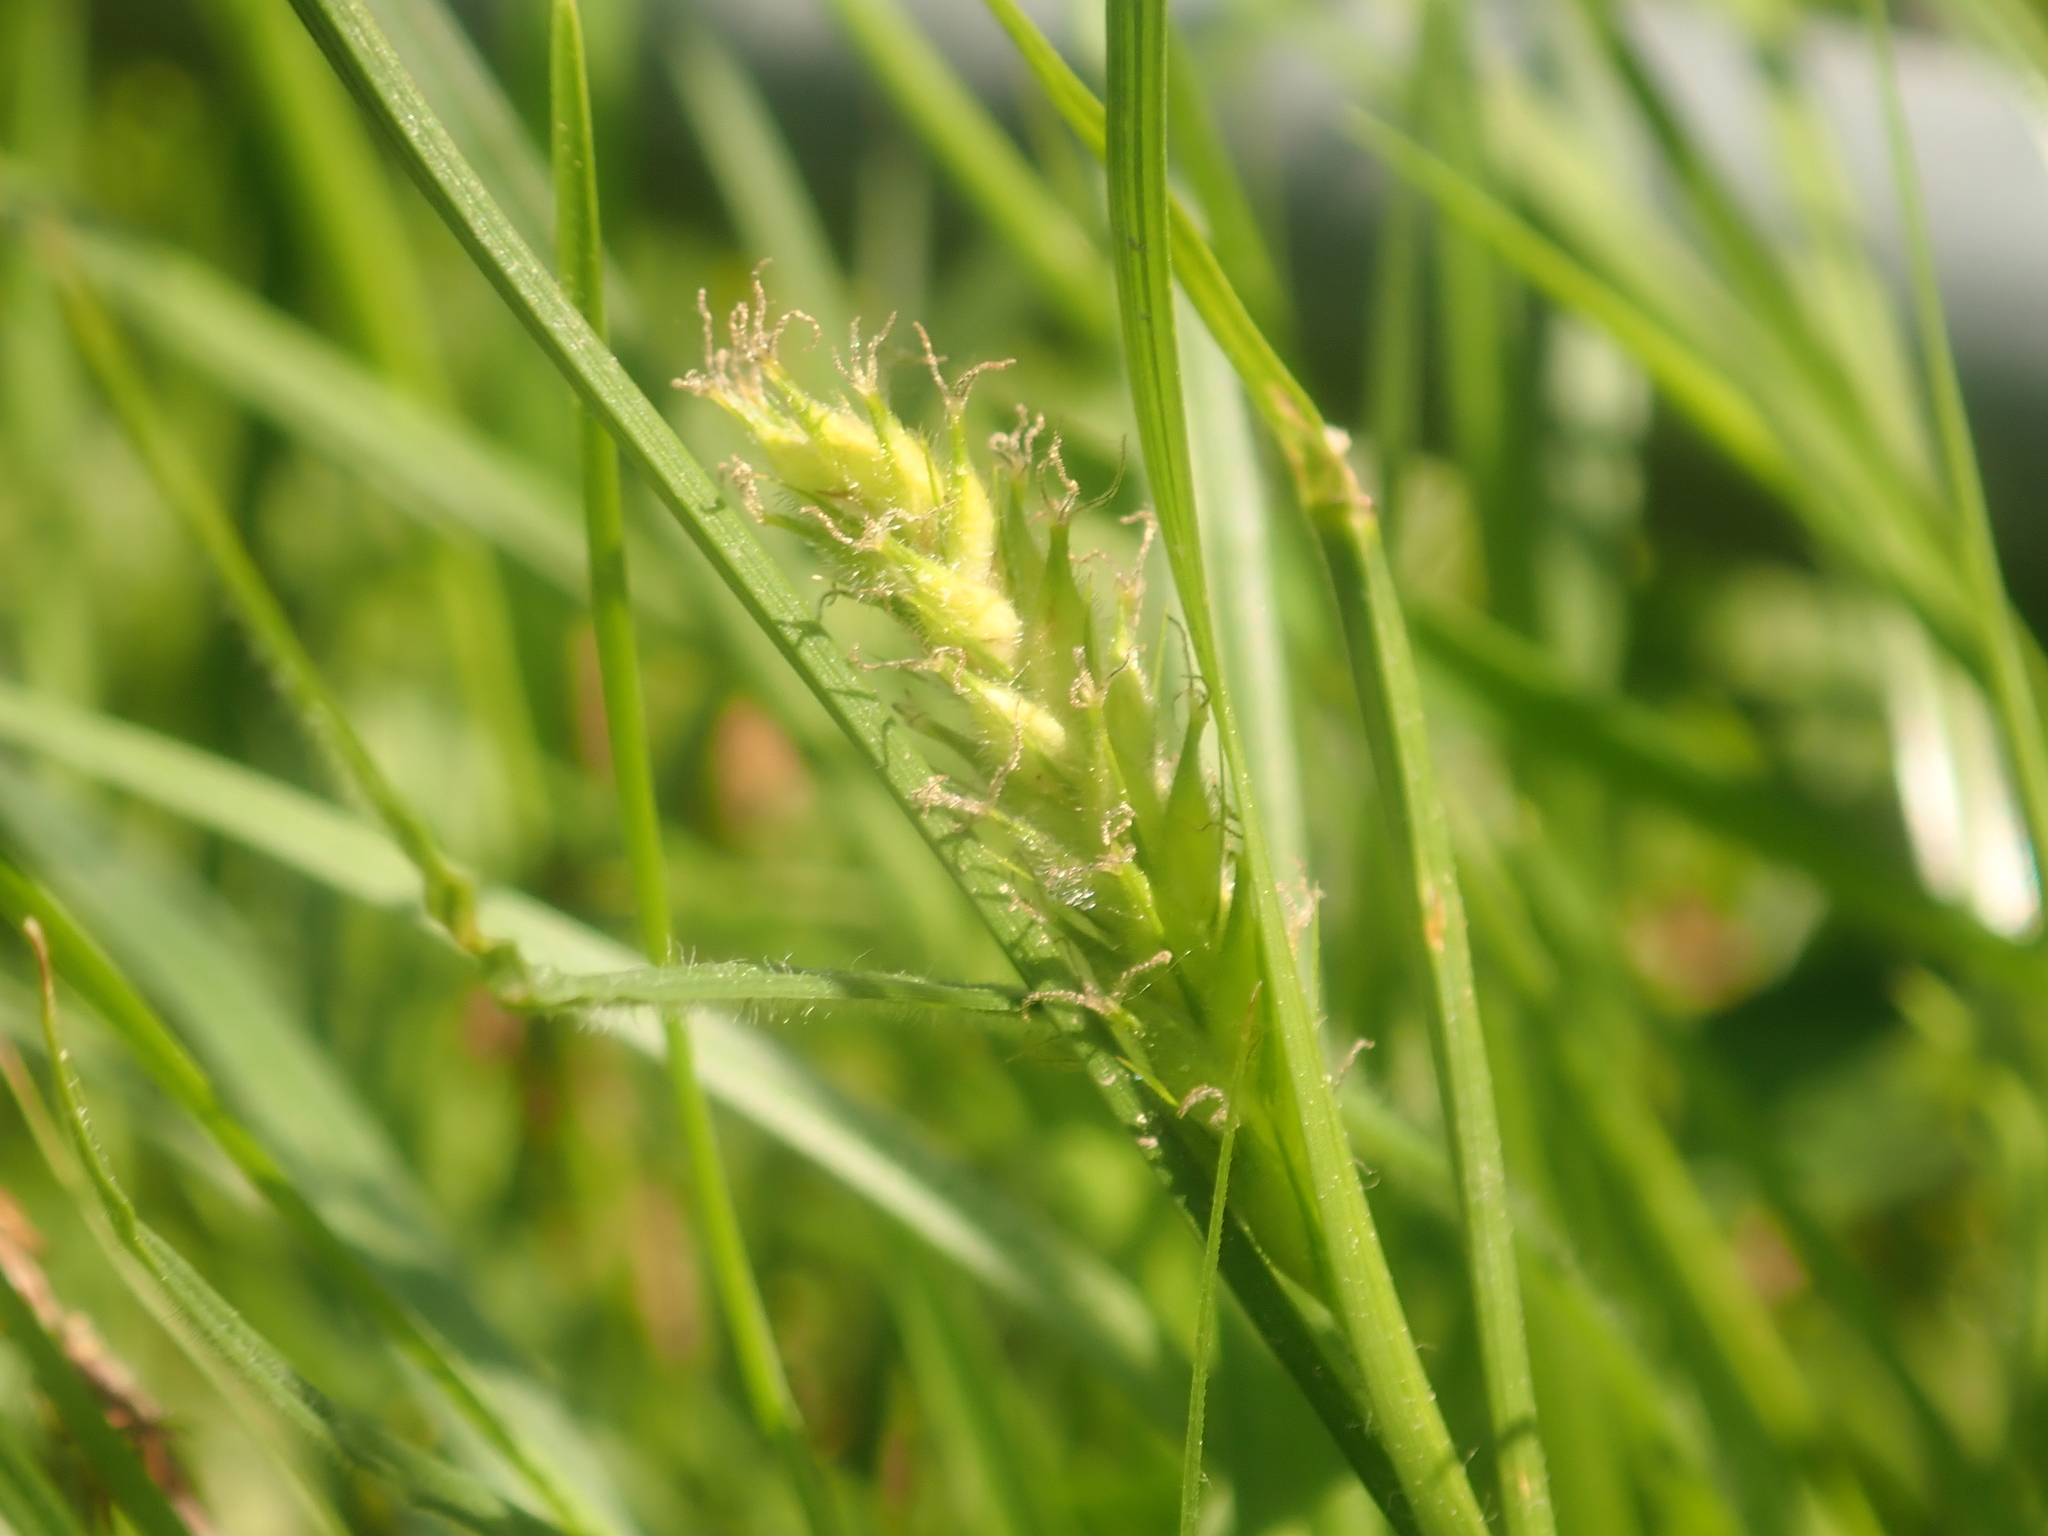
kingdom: Plantae
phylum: Tracheophyta
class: Liliopsida
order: Poales
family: Cyperaceae
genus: Carex
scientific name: Carex hirta
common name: Hairy sedge
